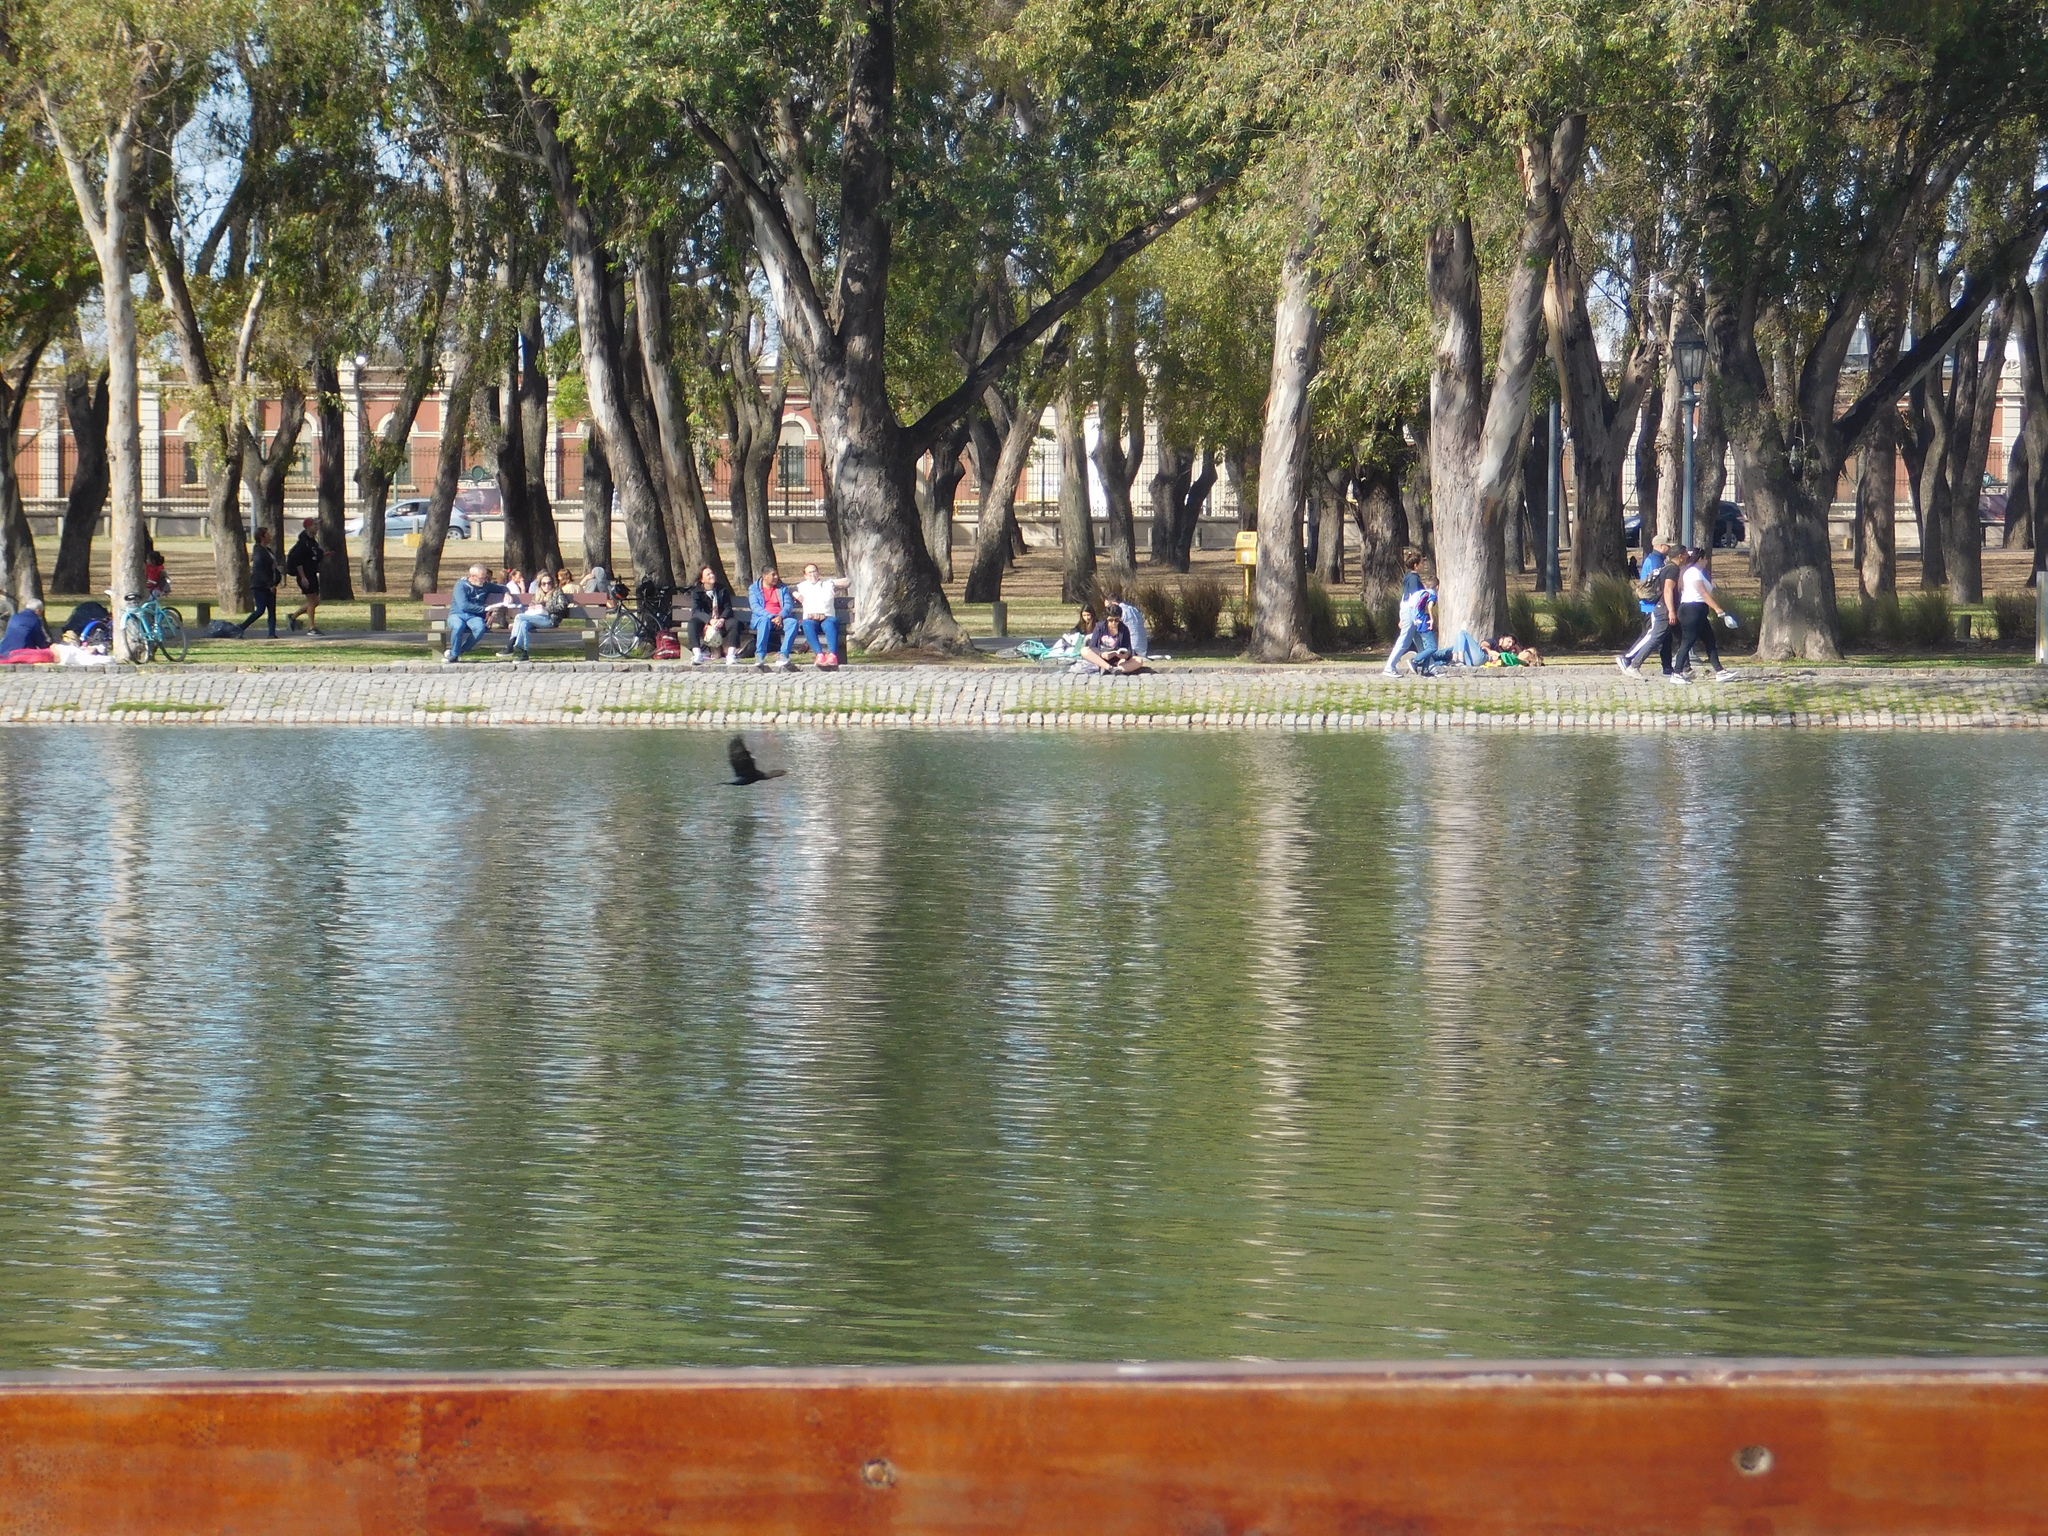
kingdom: Animalia
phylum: Chordata
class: Aves
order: Suliformes
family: Phalacrocoracidae
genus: Phalacrocorax
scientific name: Phalacrocorax brasilianus
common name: Neotropic cormorant
